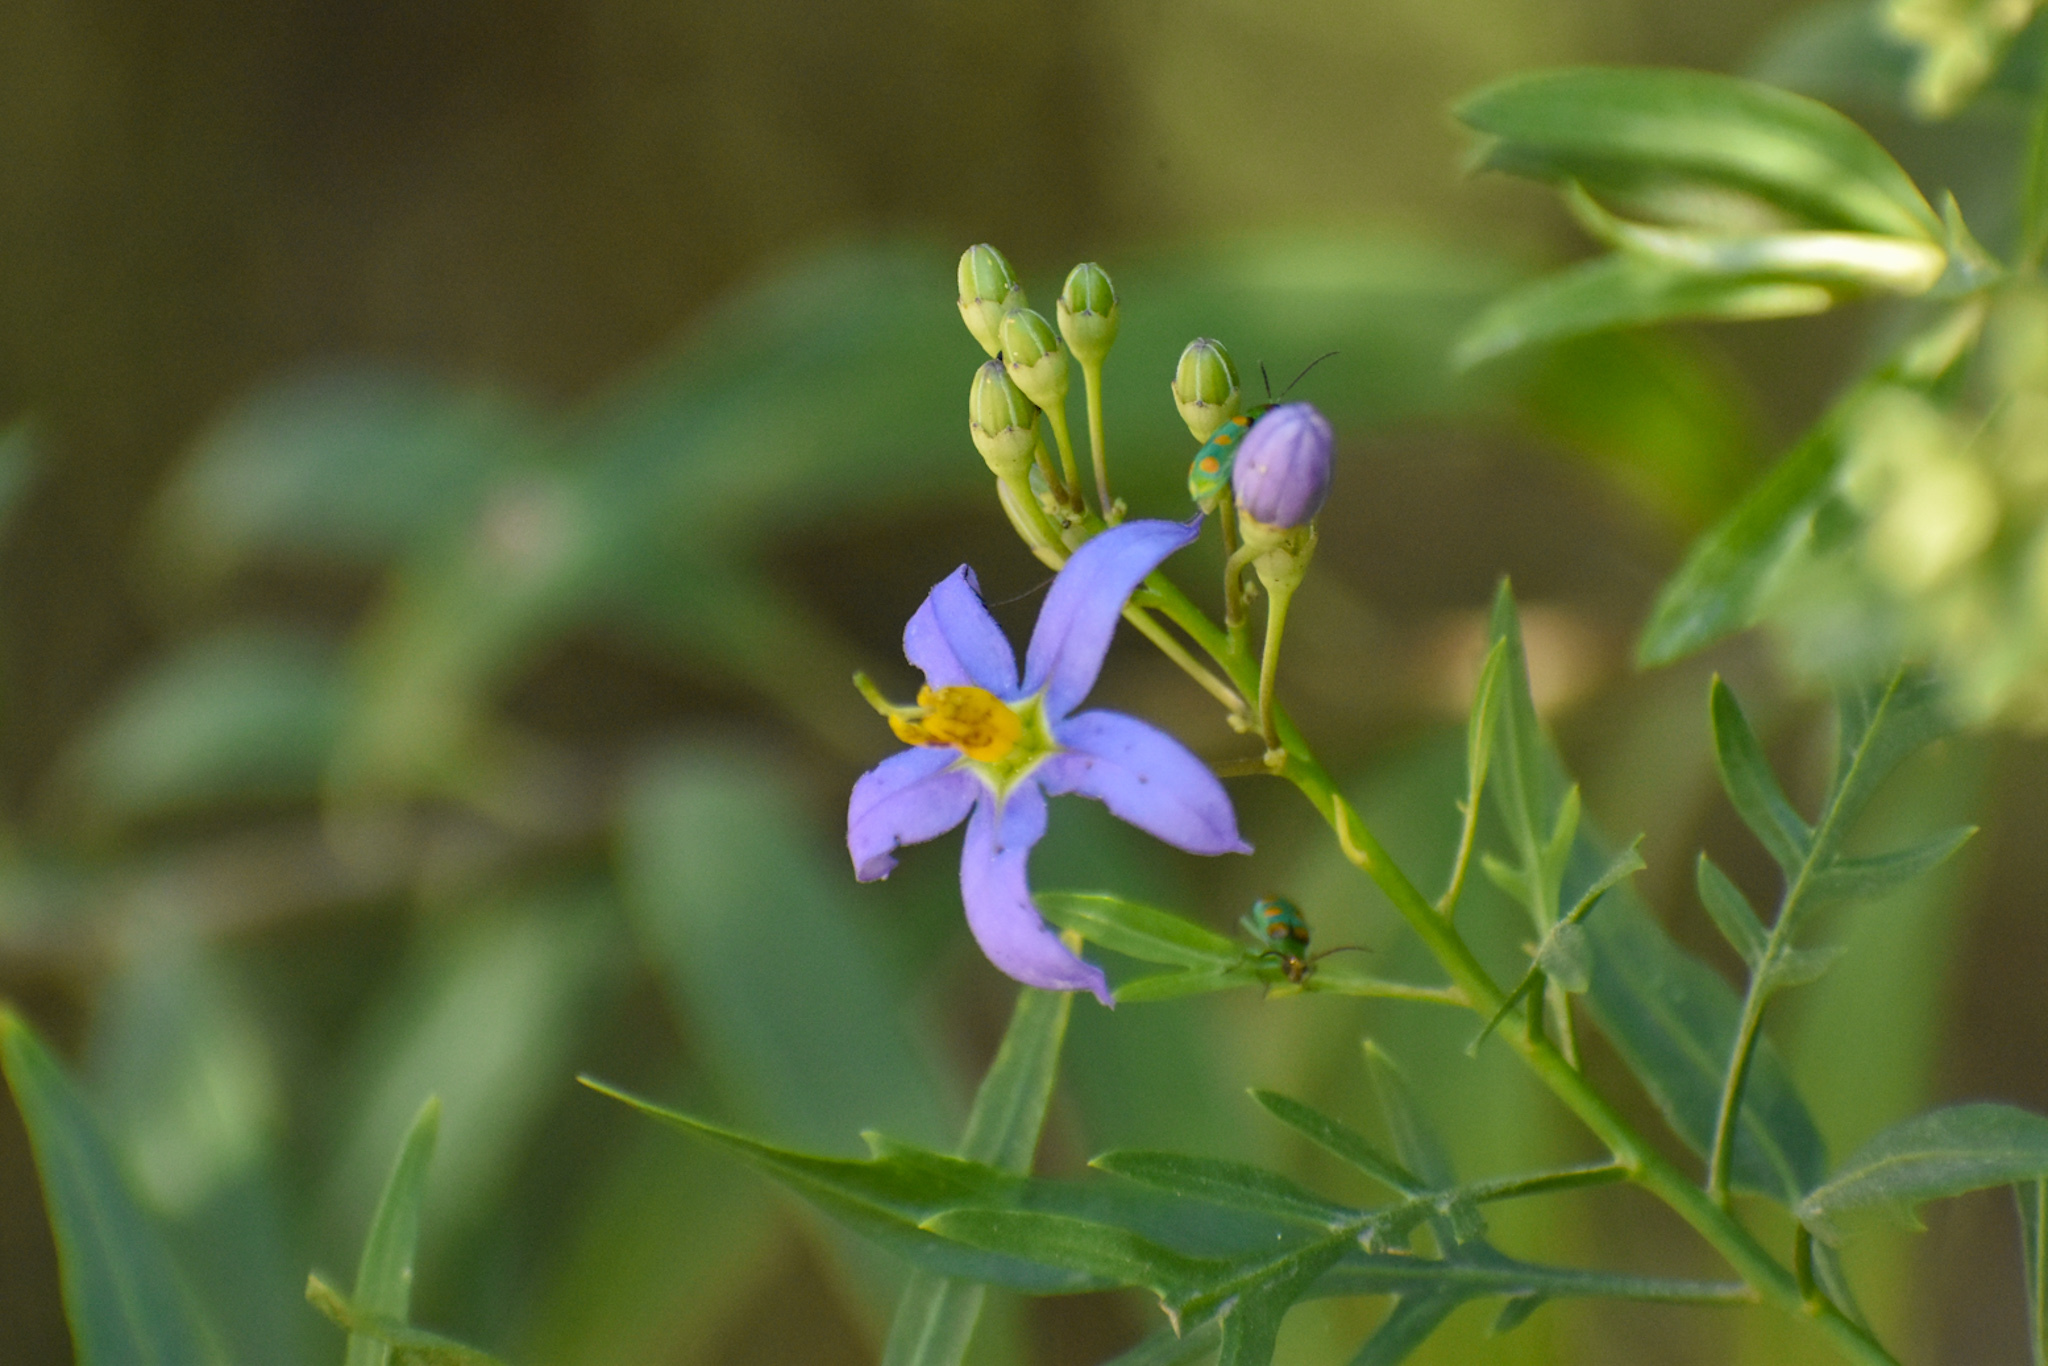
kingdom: Plantae
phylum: Tracheophyta
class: Magnoliopsida
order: Solanales
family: Solanaceae
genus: Solanum
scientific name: Solanum angustifidum
